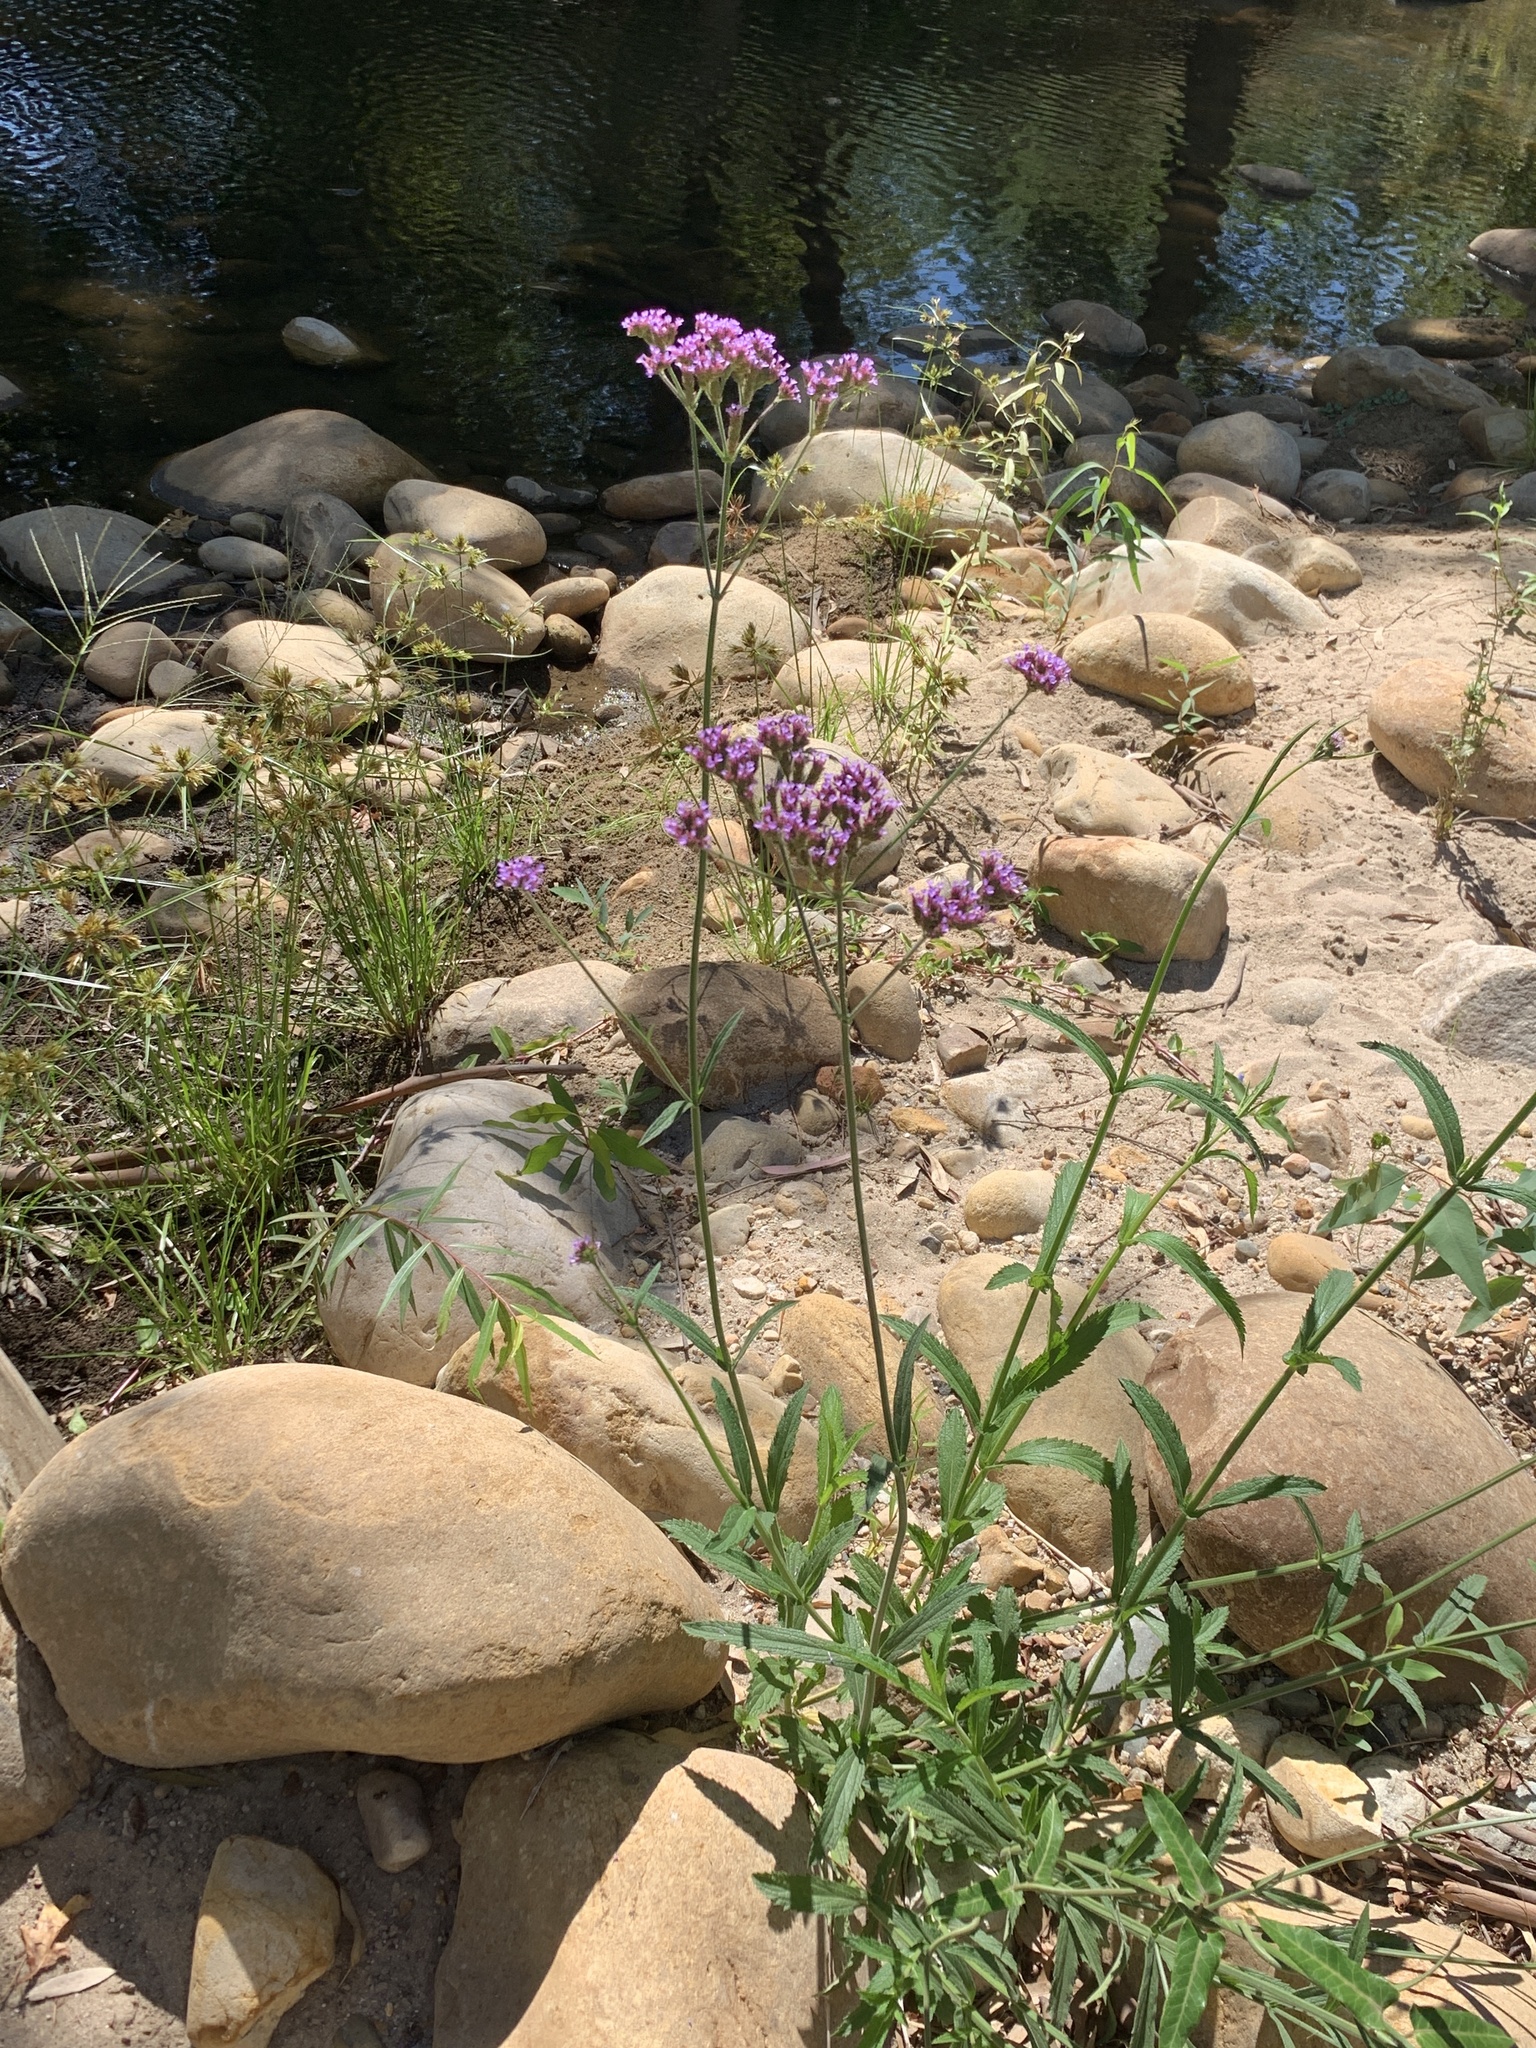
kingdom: Plantae
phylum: Tracheophyta
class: Magnoliopsida
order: Lamiales
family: Verbenaceae
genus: Verbena
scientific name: Verbena bonariensis
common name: Purpletop vervain
